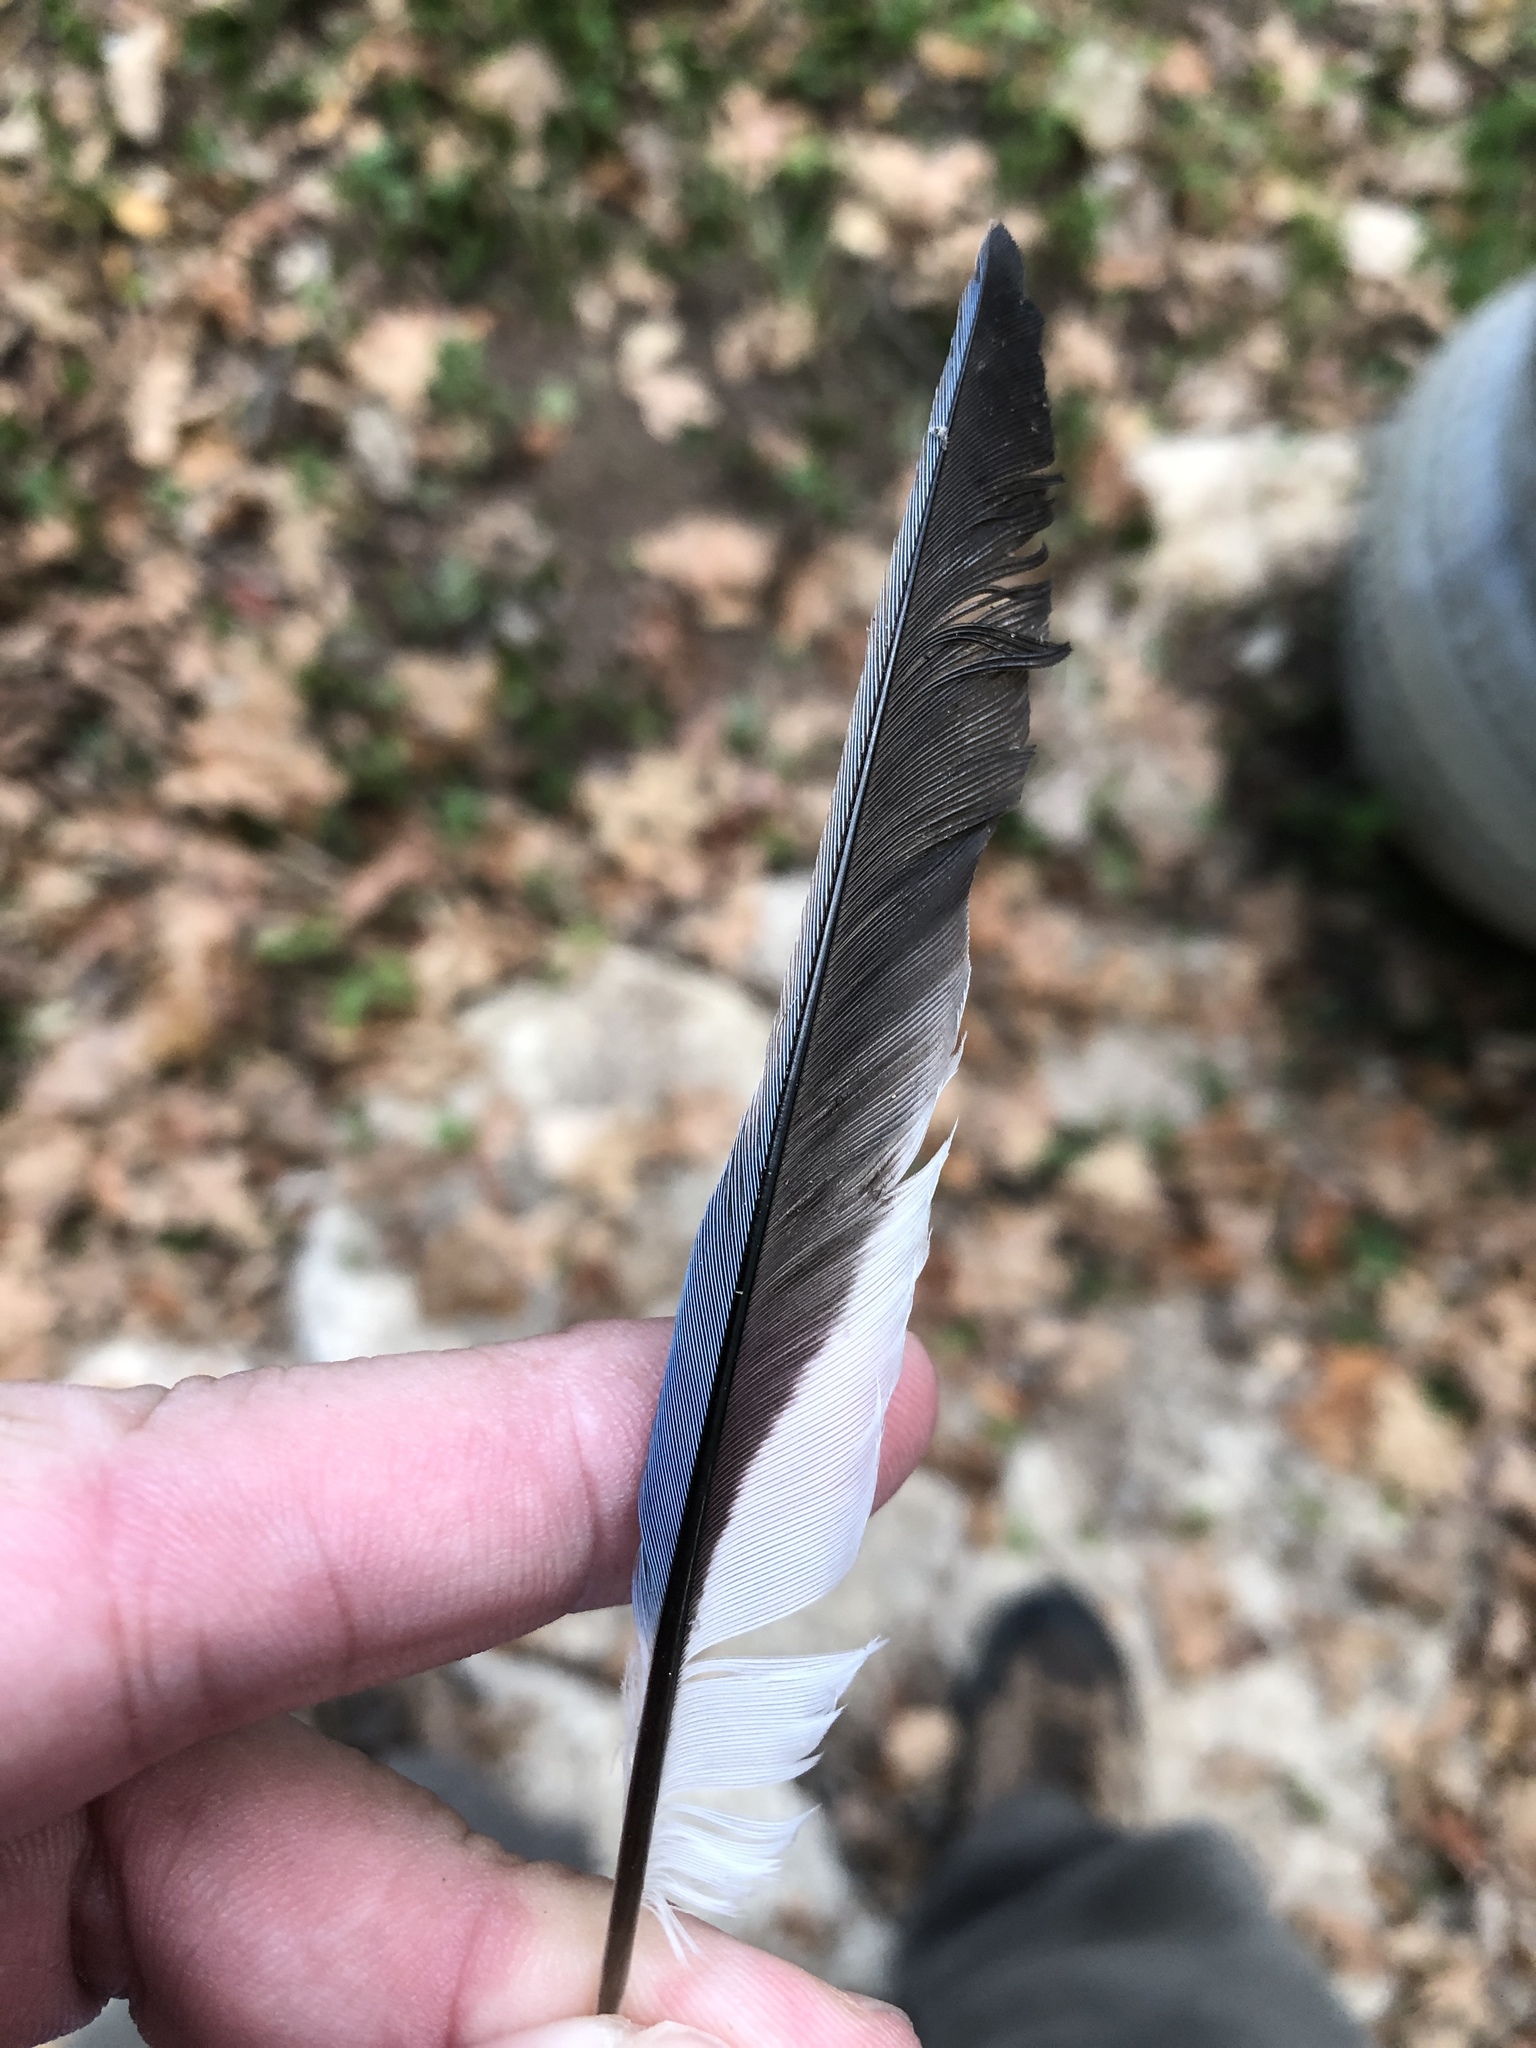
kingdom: Animalia
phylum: Chordata
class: Aves
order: Passeriformes
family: Corvidae
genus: Cyanocitta
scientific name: Cyanocitta cristata
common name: Blue jay
